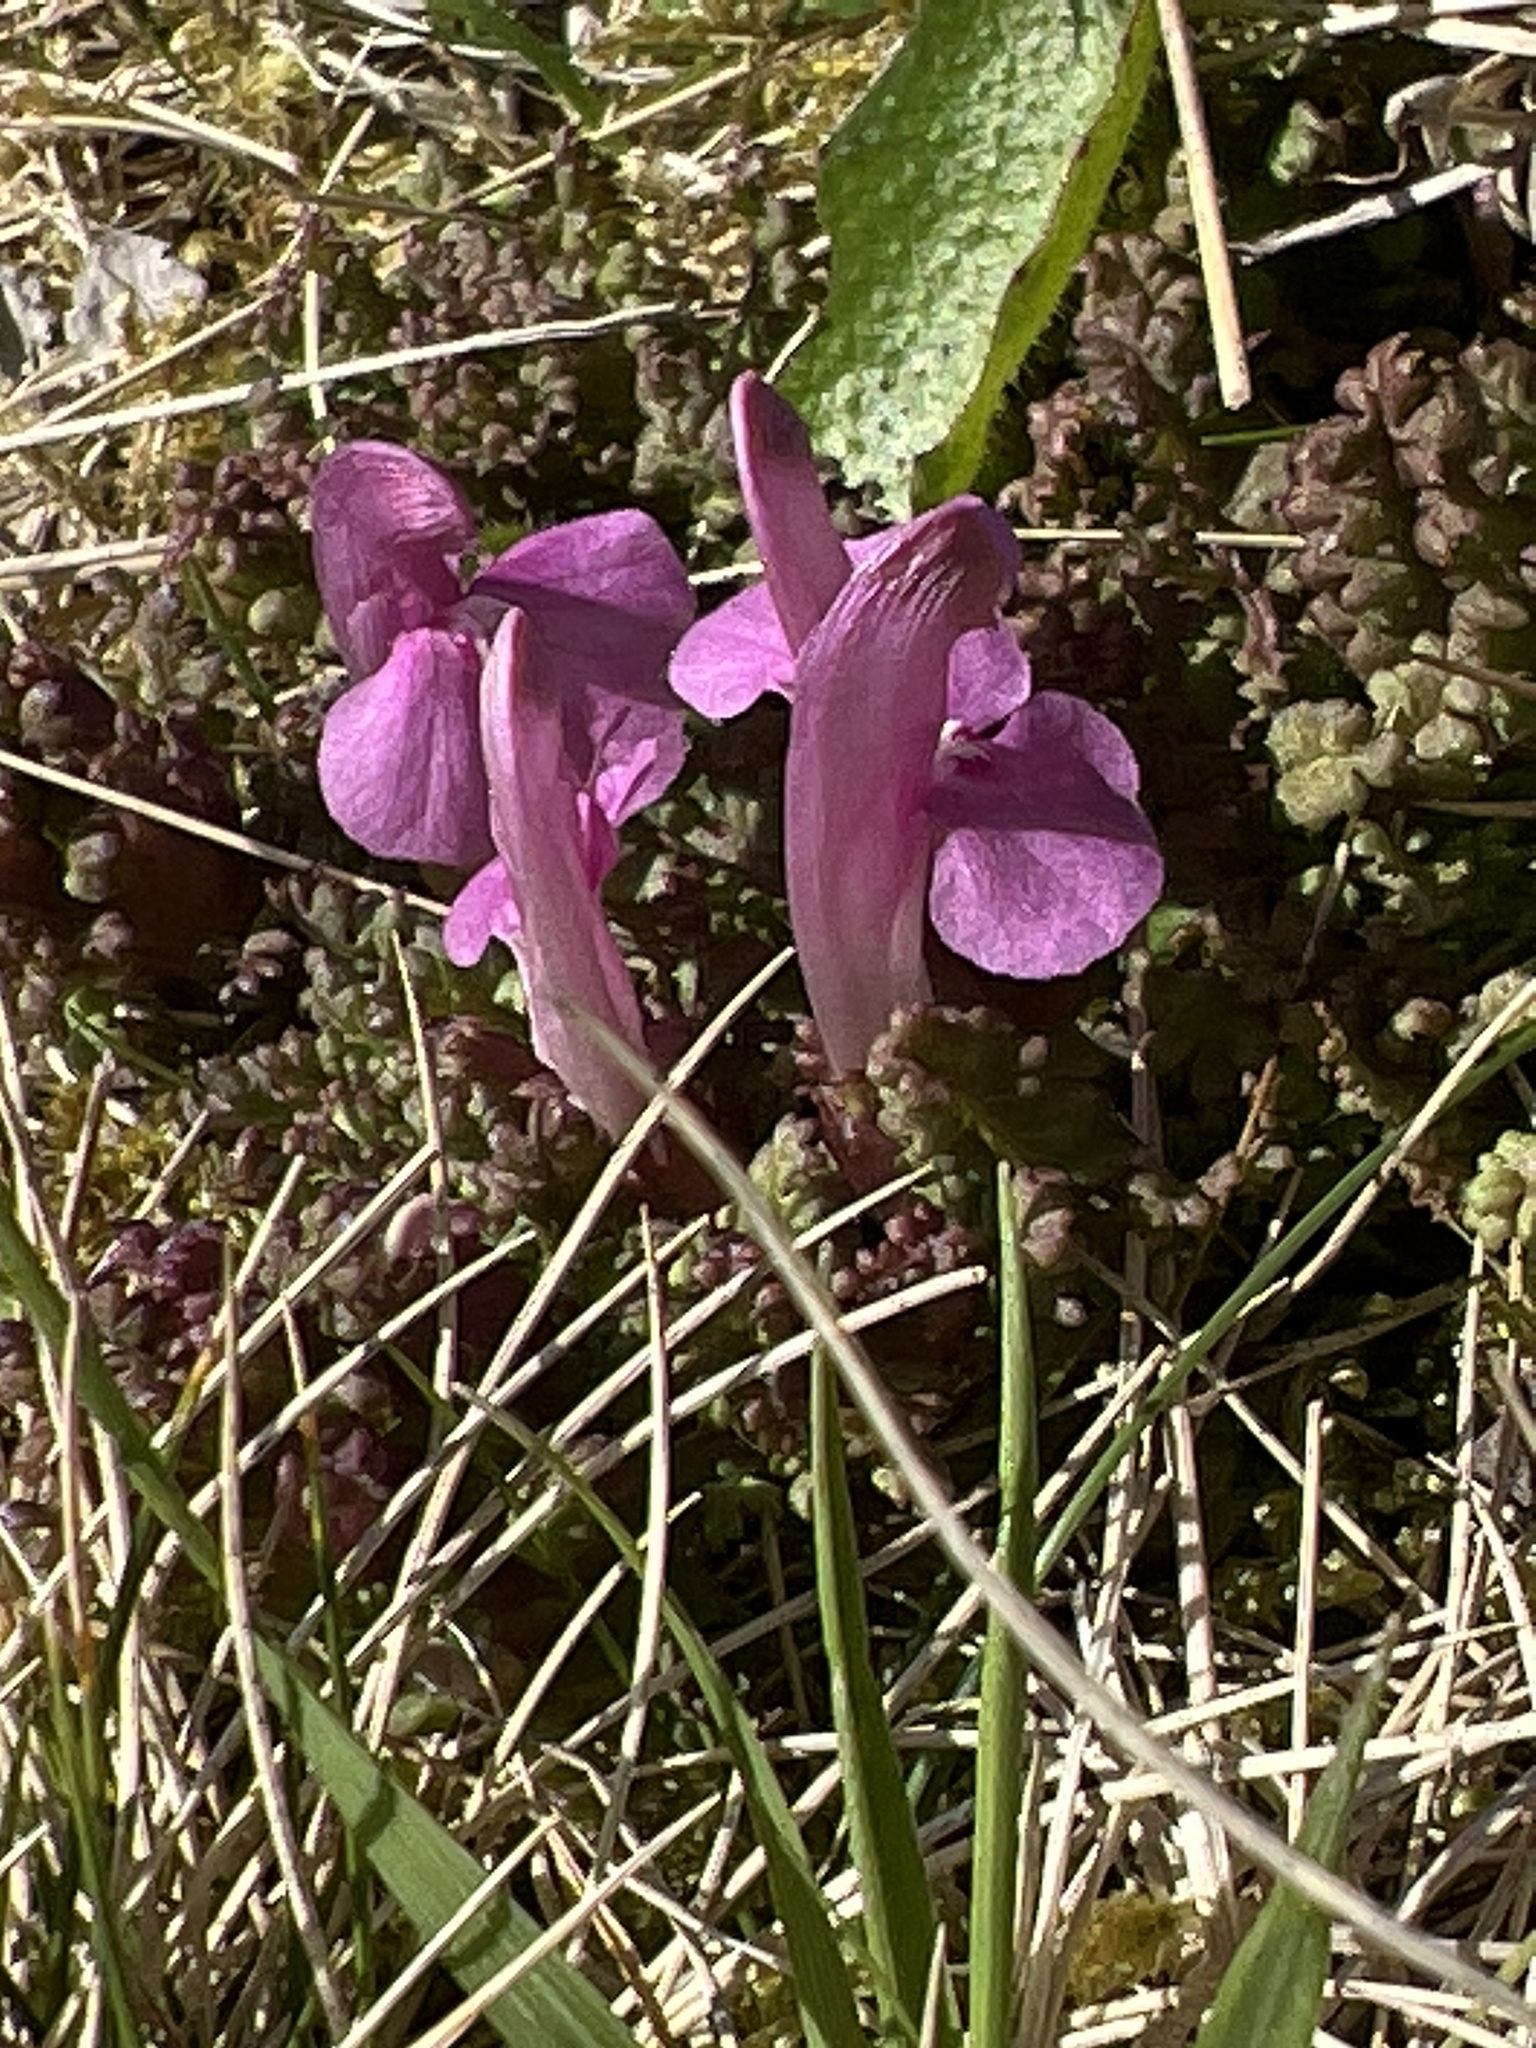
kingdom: Plantae
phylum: Tracheophyta
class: Magnoliopsida
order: Lamiales
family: Orobanchaceae
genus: Pedicularis
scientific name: Pedicularis sylvatica
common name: Lousewort
